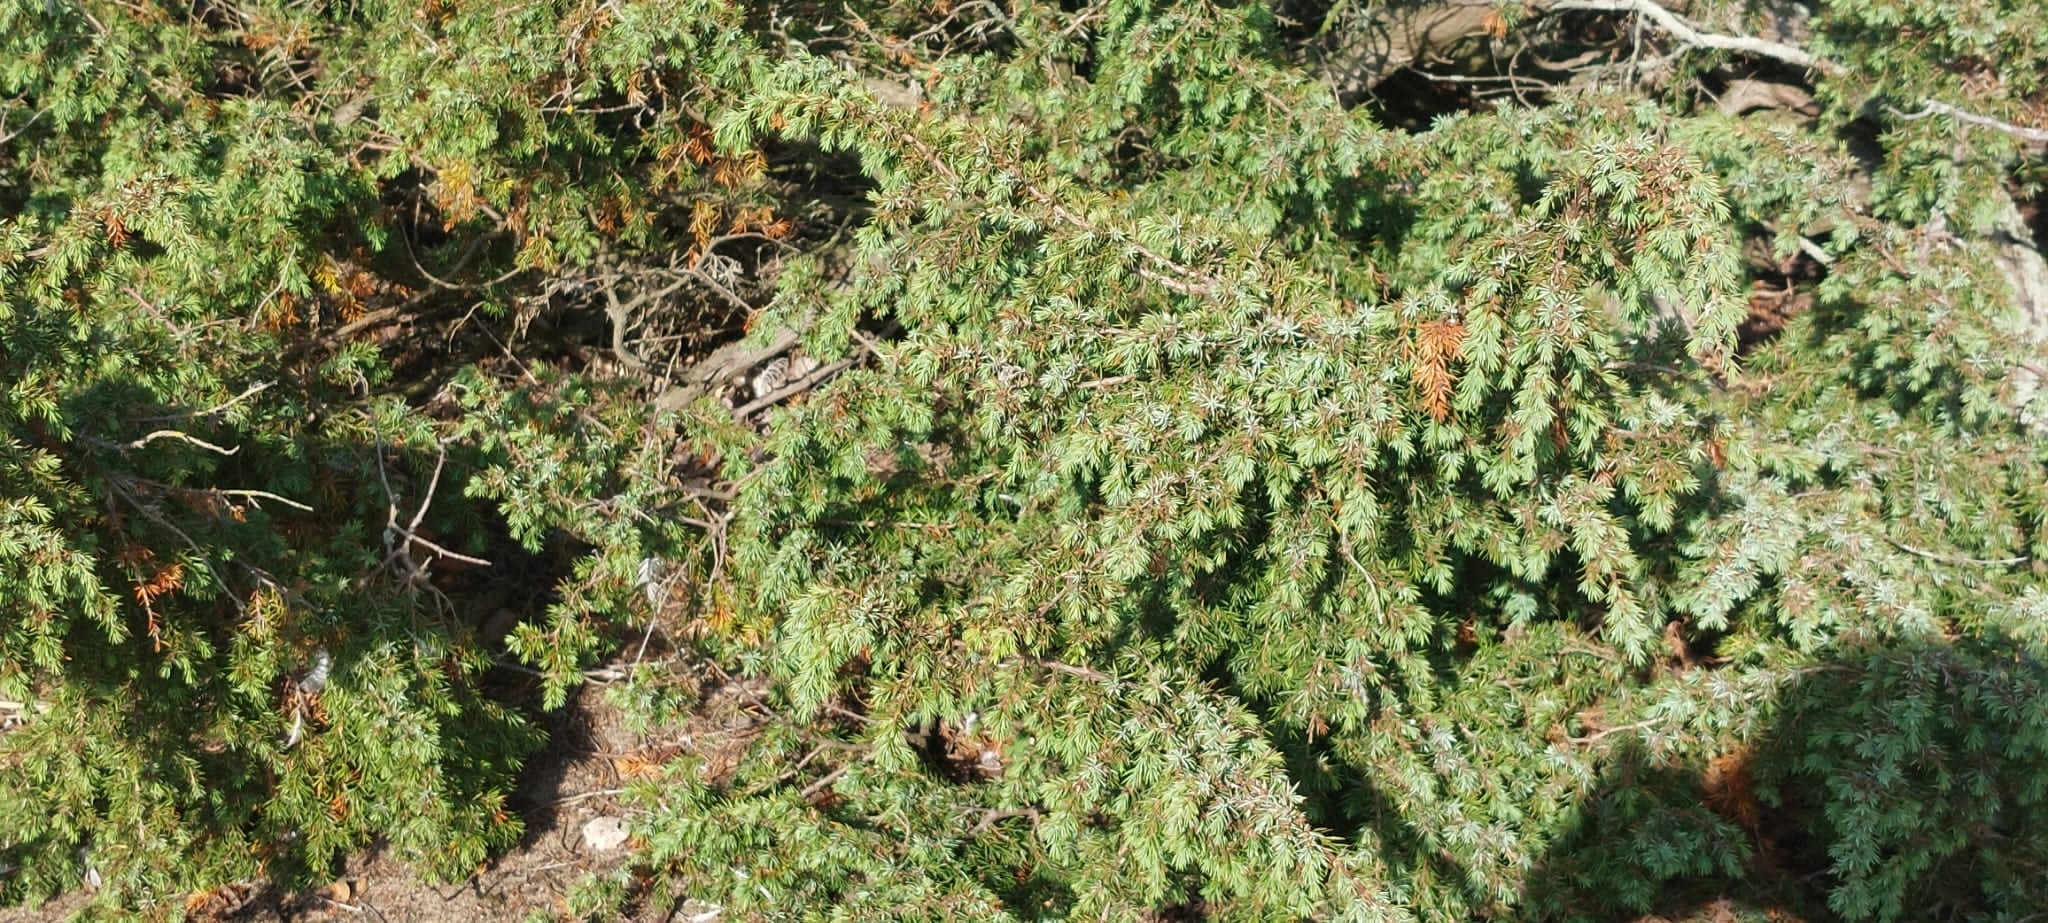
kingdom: Plantae
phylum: Tracheophyta
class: Pinopsida
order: Pinales
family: Cupressaceae
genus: Juniperus
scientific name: Juniperus communis
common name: Common juniper
